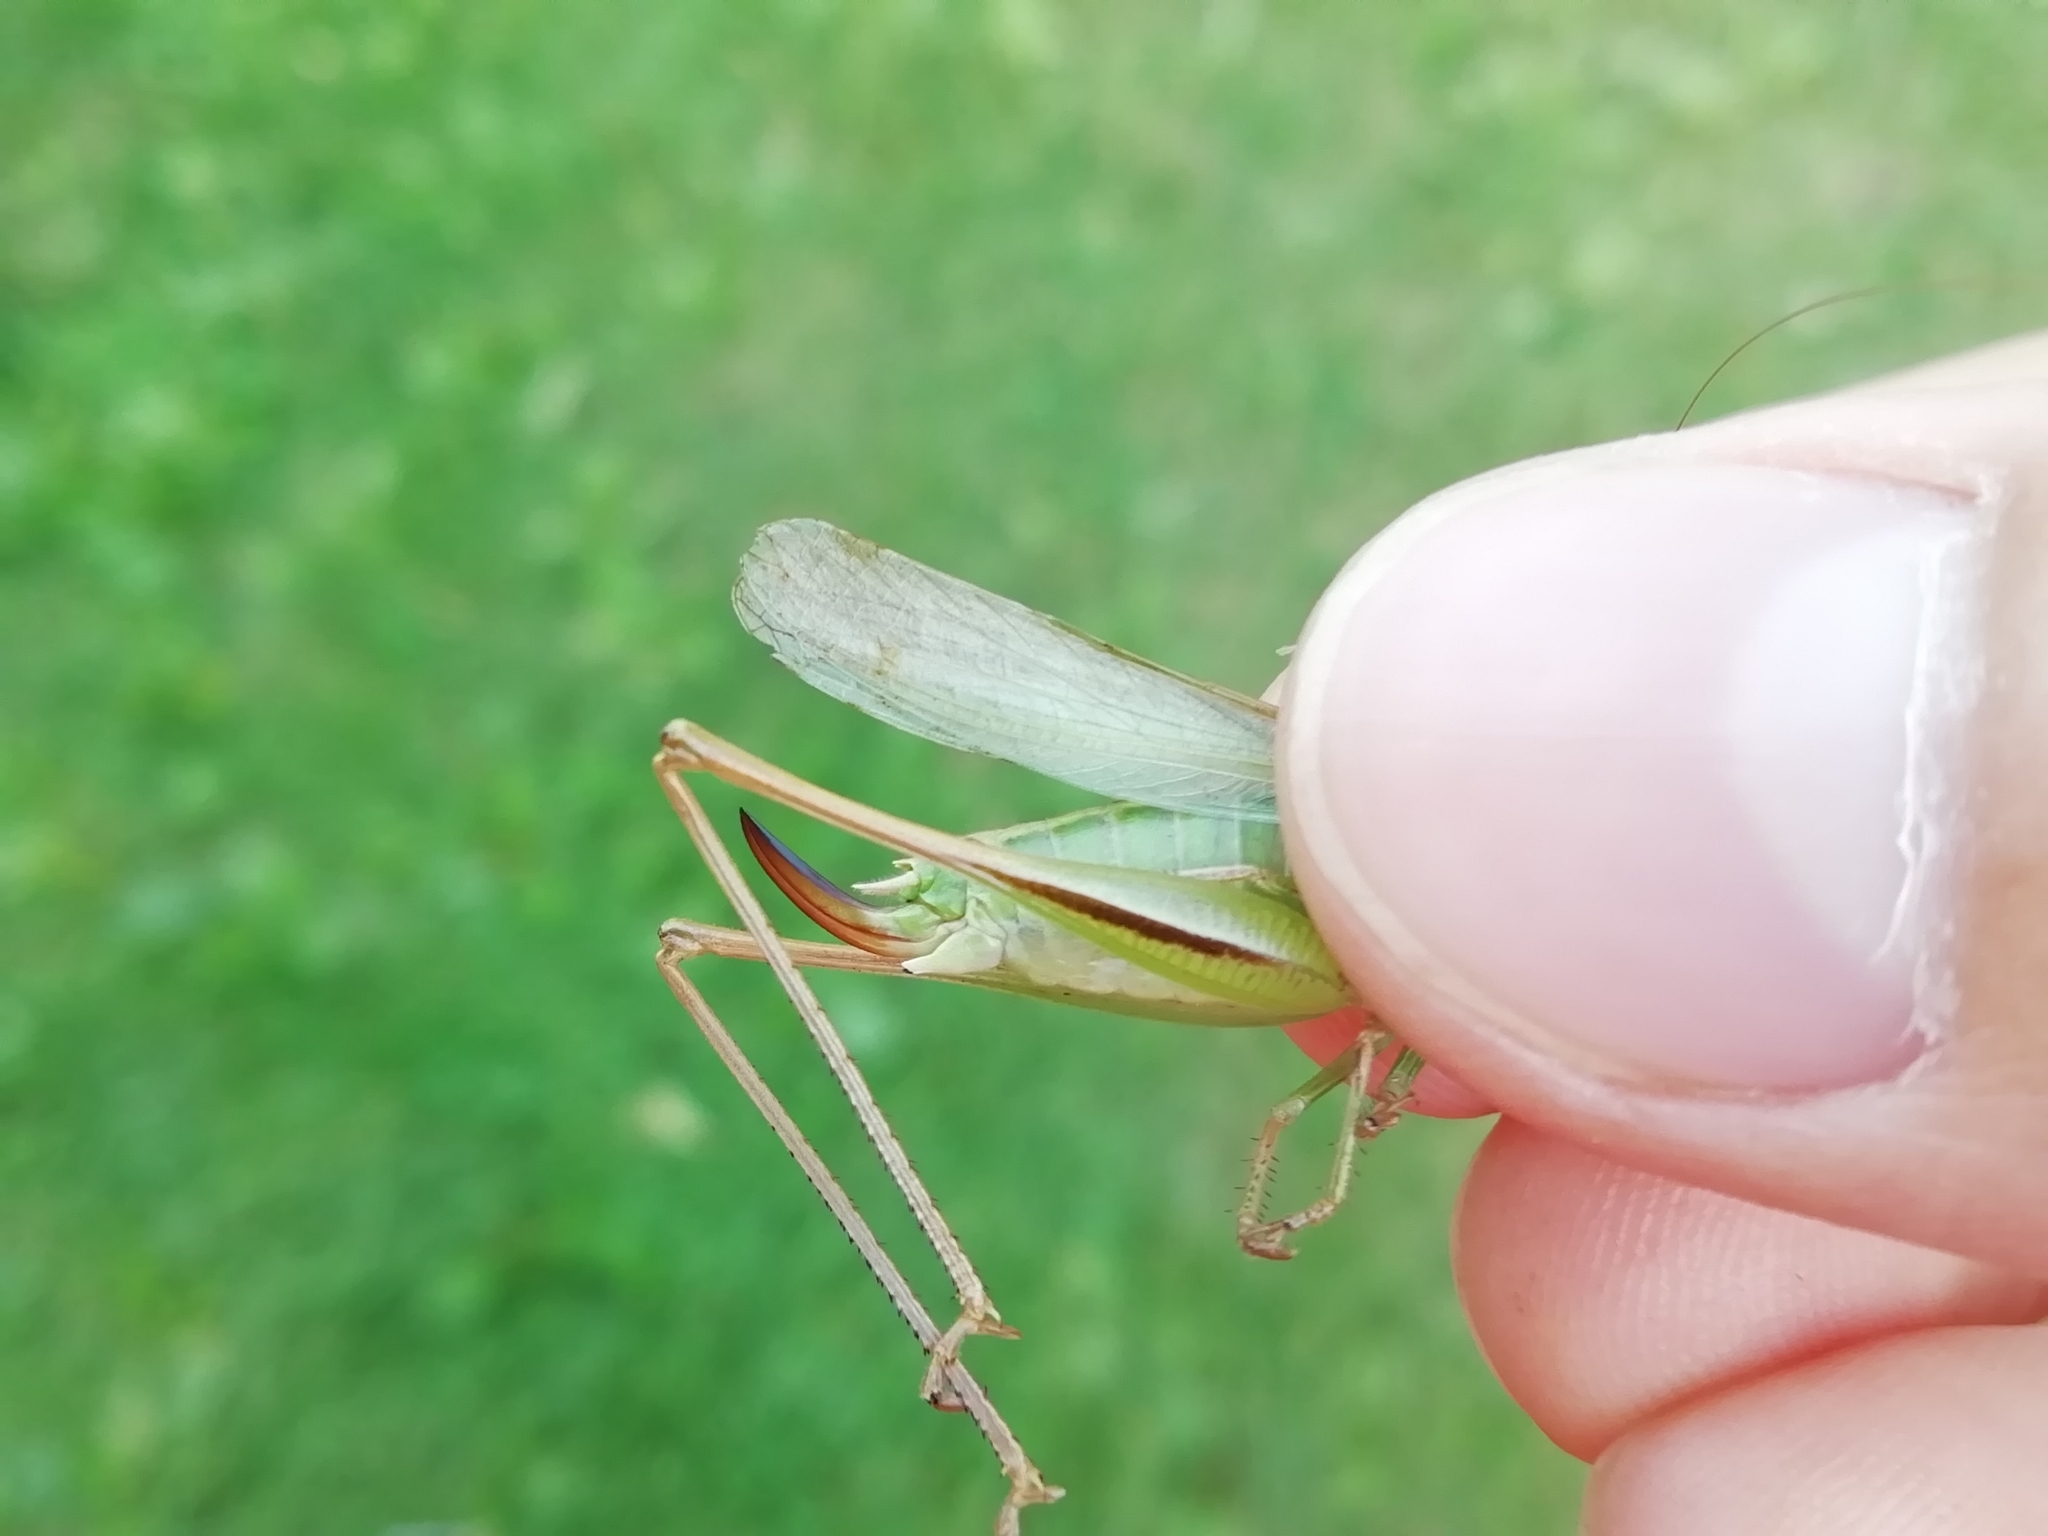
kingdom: Animalia
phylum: Arthropoda
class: Insecta
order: Orthoptera
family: Tettigoniidae
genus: Bicolorana
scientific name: Bicolorana bicolor
